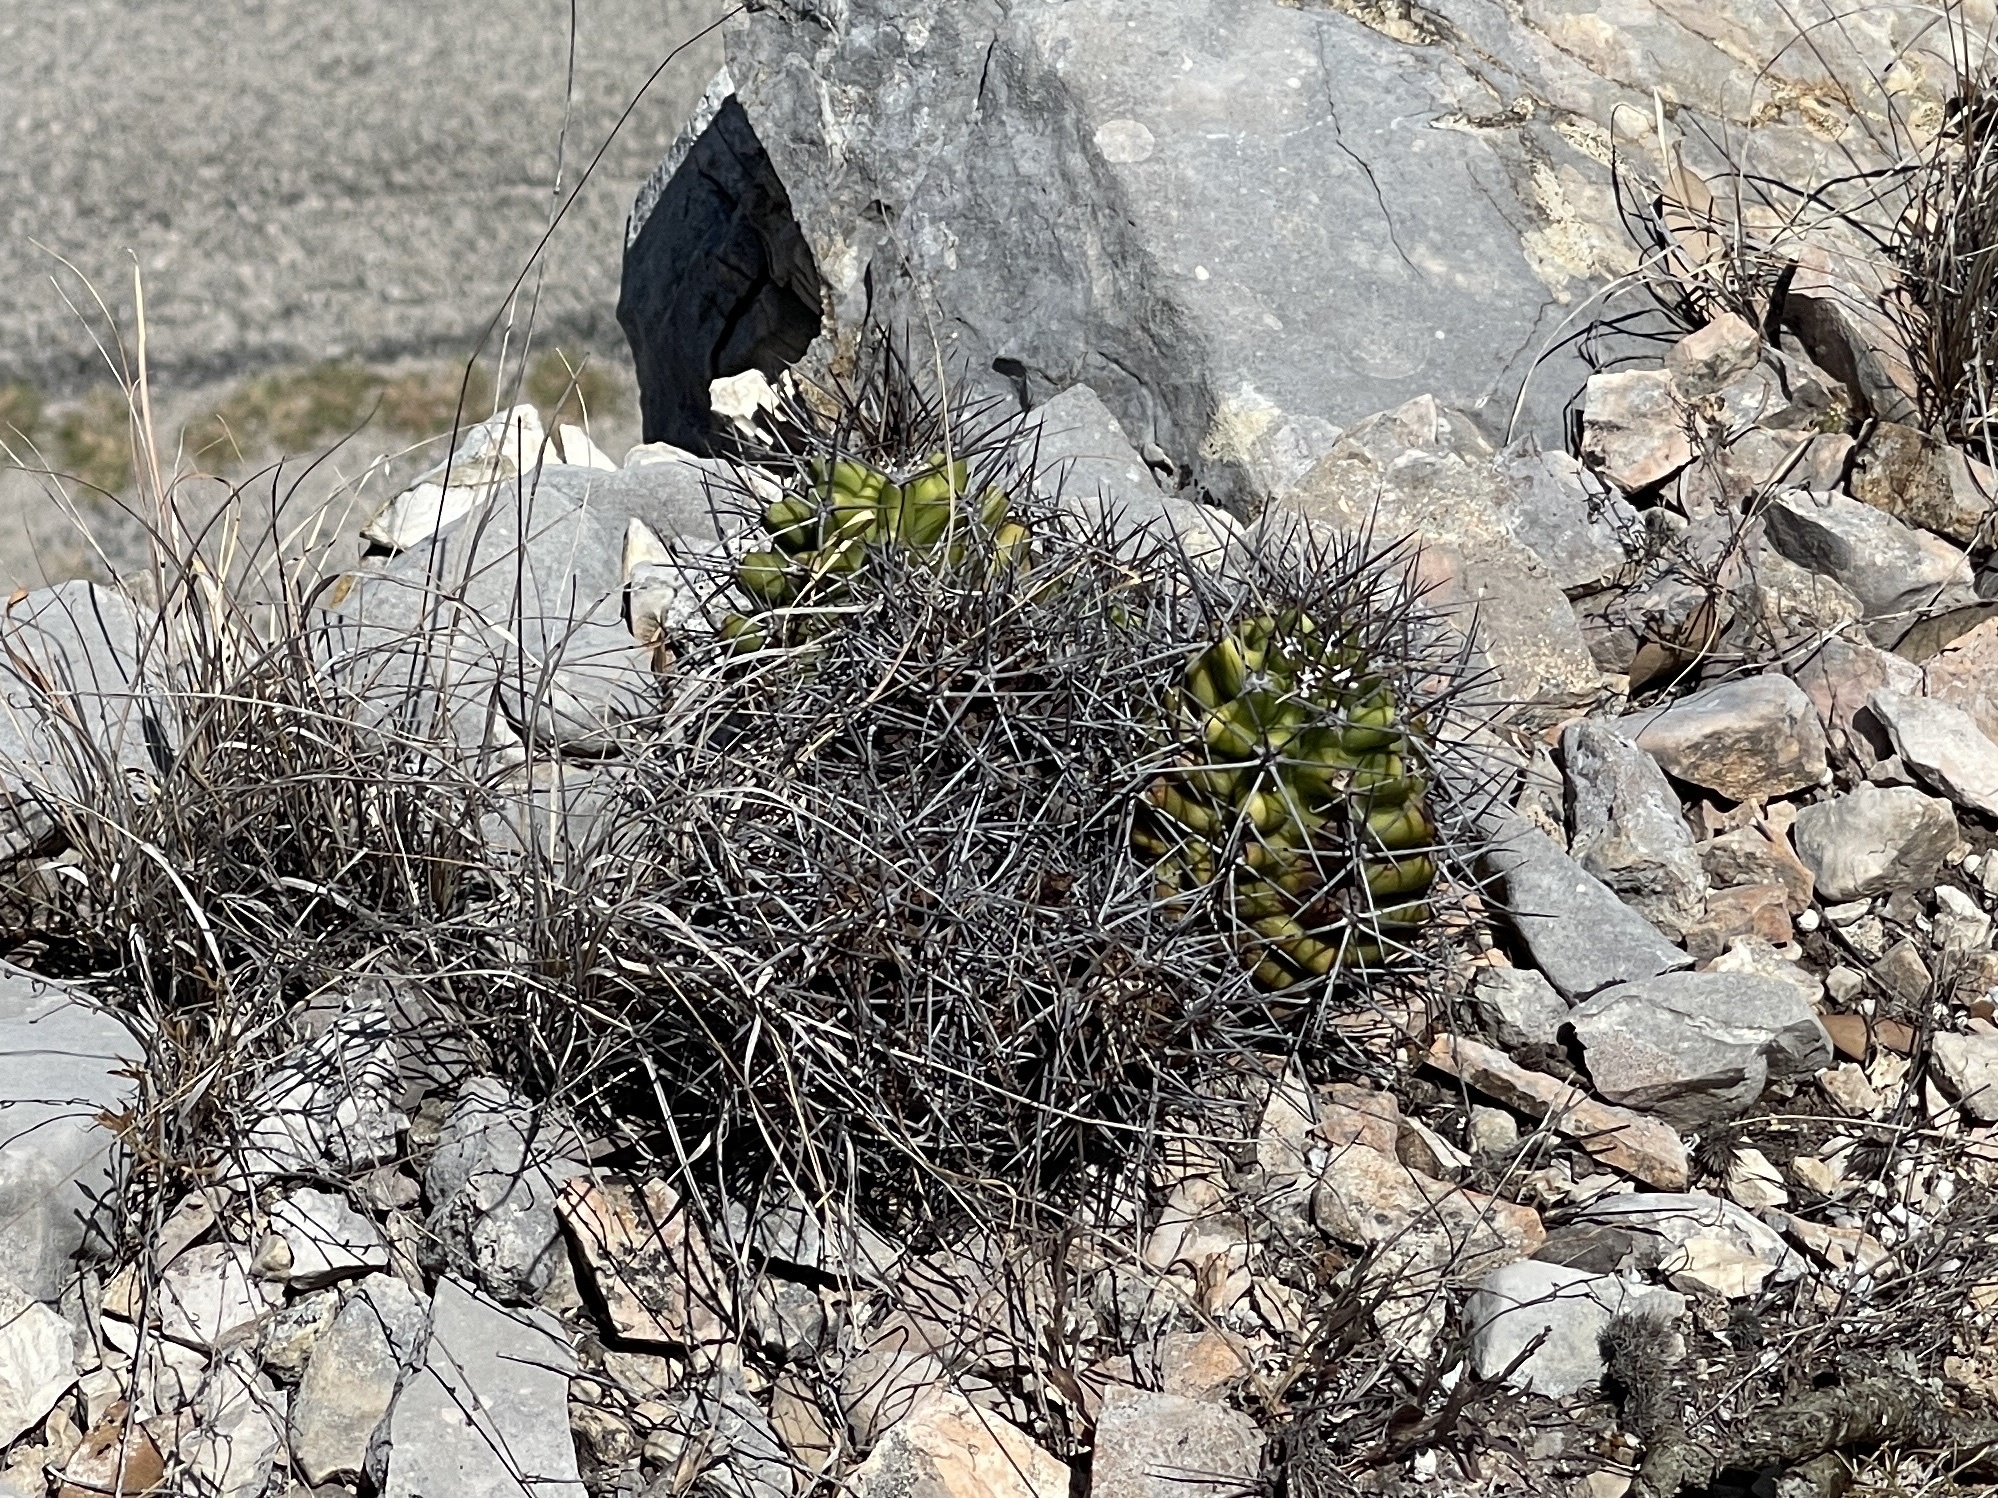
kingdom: Plantae
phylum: Tracheophyta
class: Magnoliopsida
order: Caryophyllales
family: Cactaceae
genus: Echinocereus
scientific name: Echinocereus coccineus
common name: Scarlet hedgehog cactus
